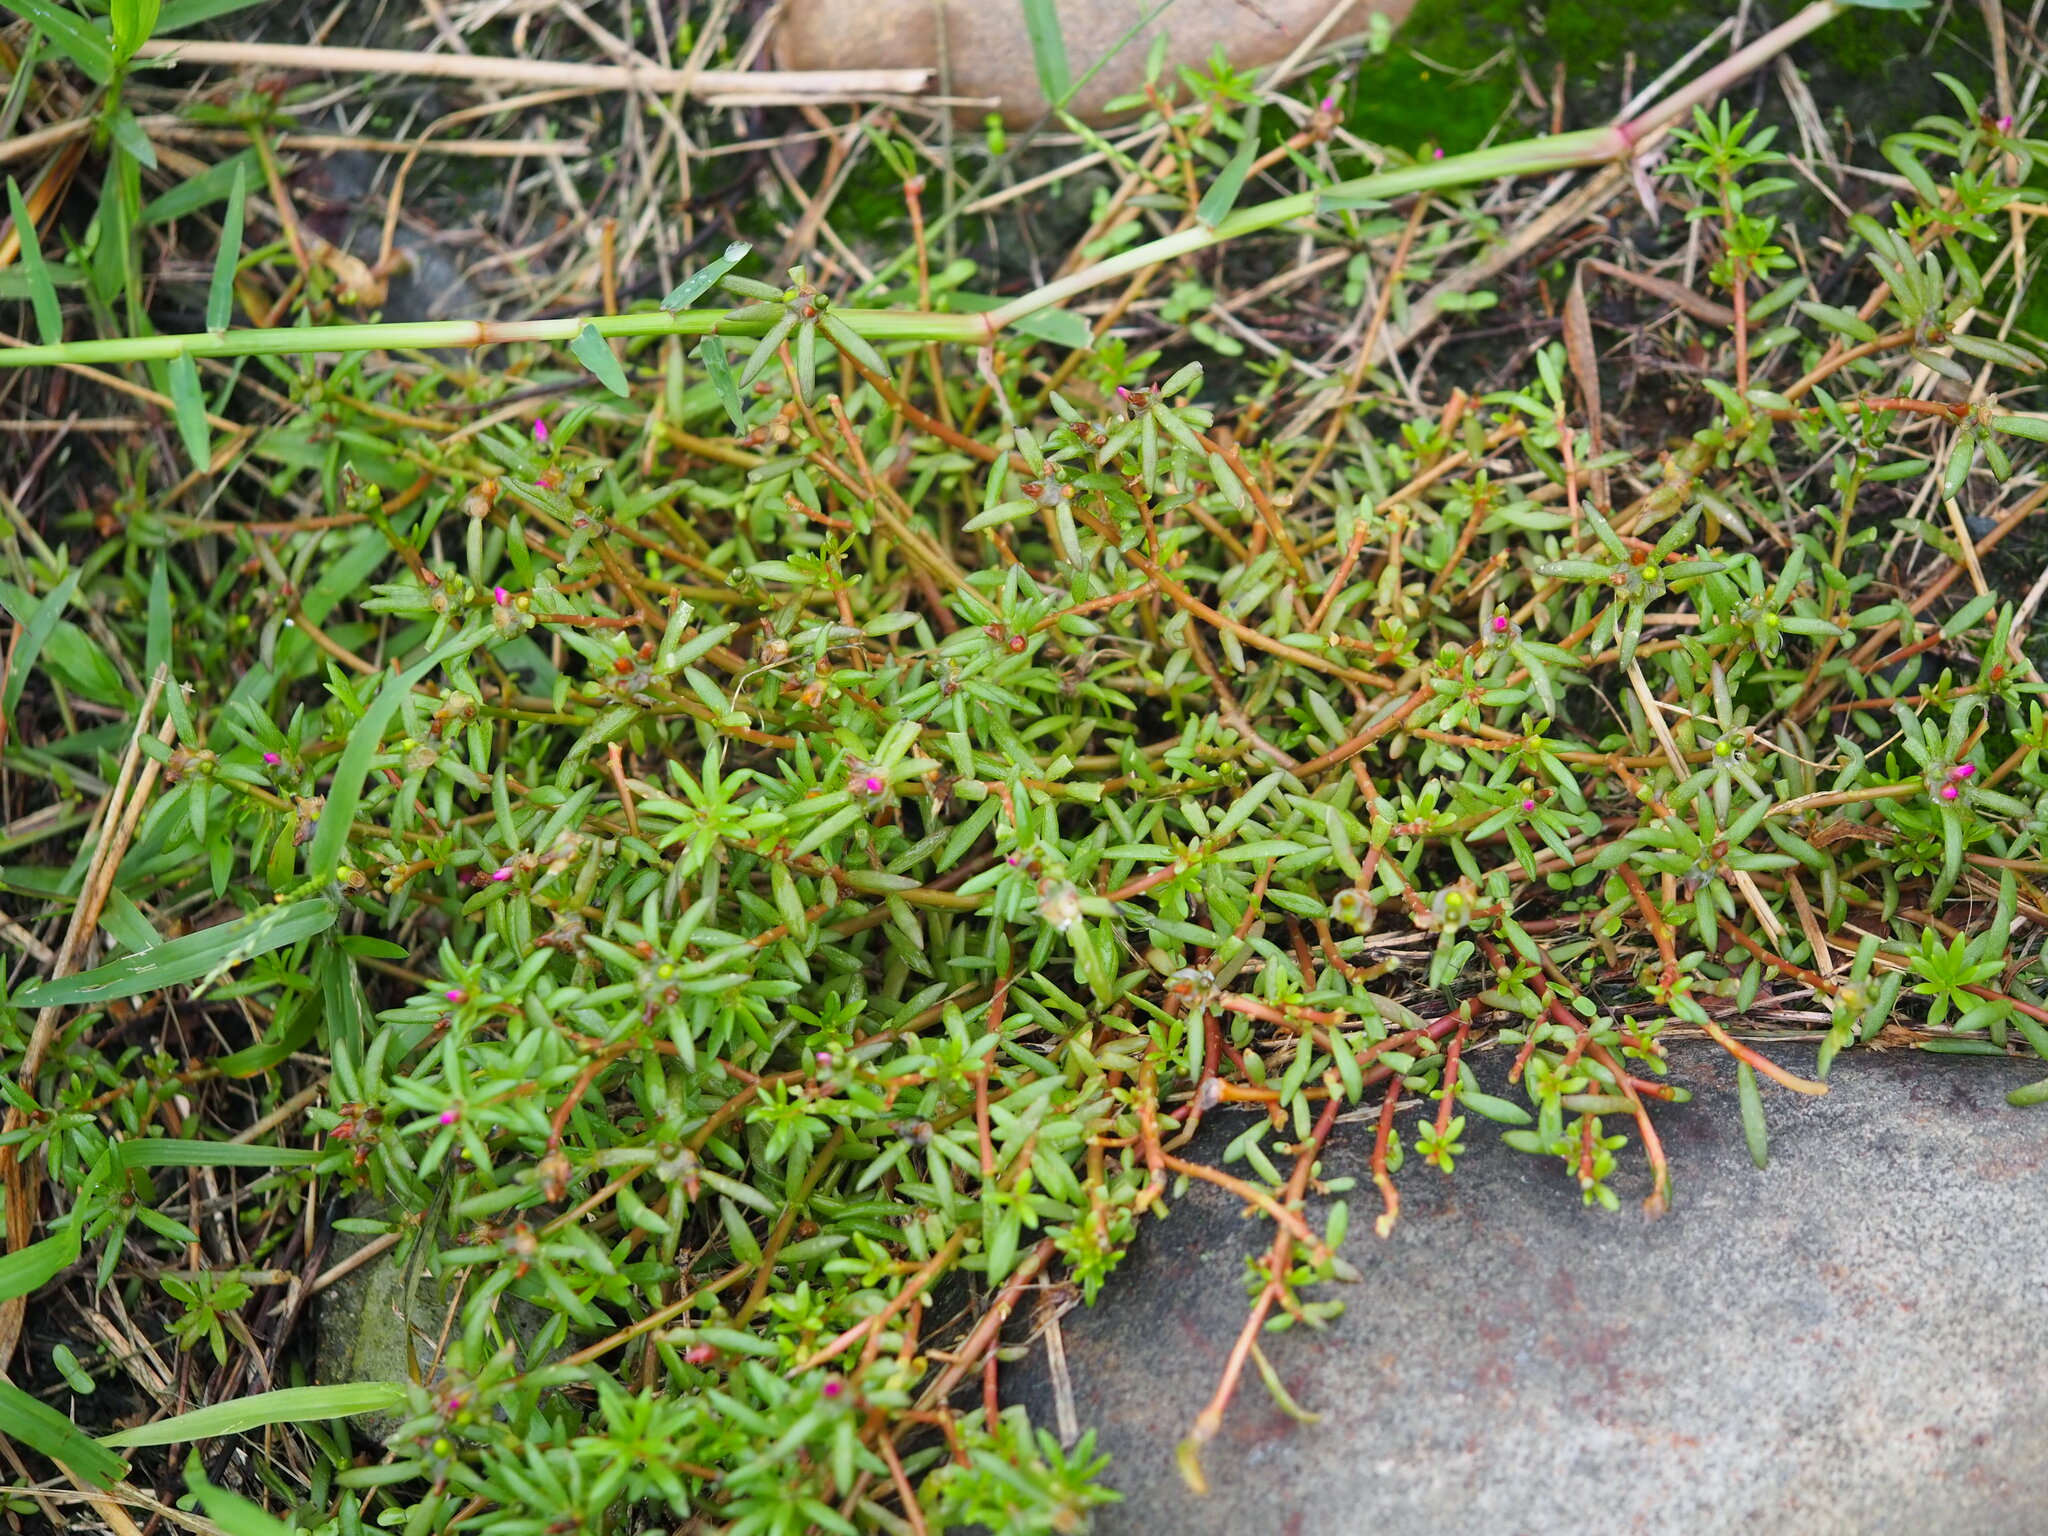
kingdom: Plantae
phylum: Tracheophyta
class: Magnoliopsida
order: Caryophyllales
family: Portulacaceae
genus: Portulaca
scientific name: Portulaca pilosa
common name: Kiss me quick
